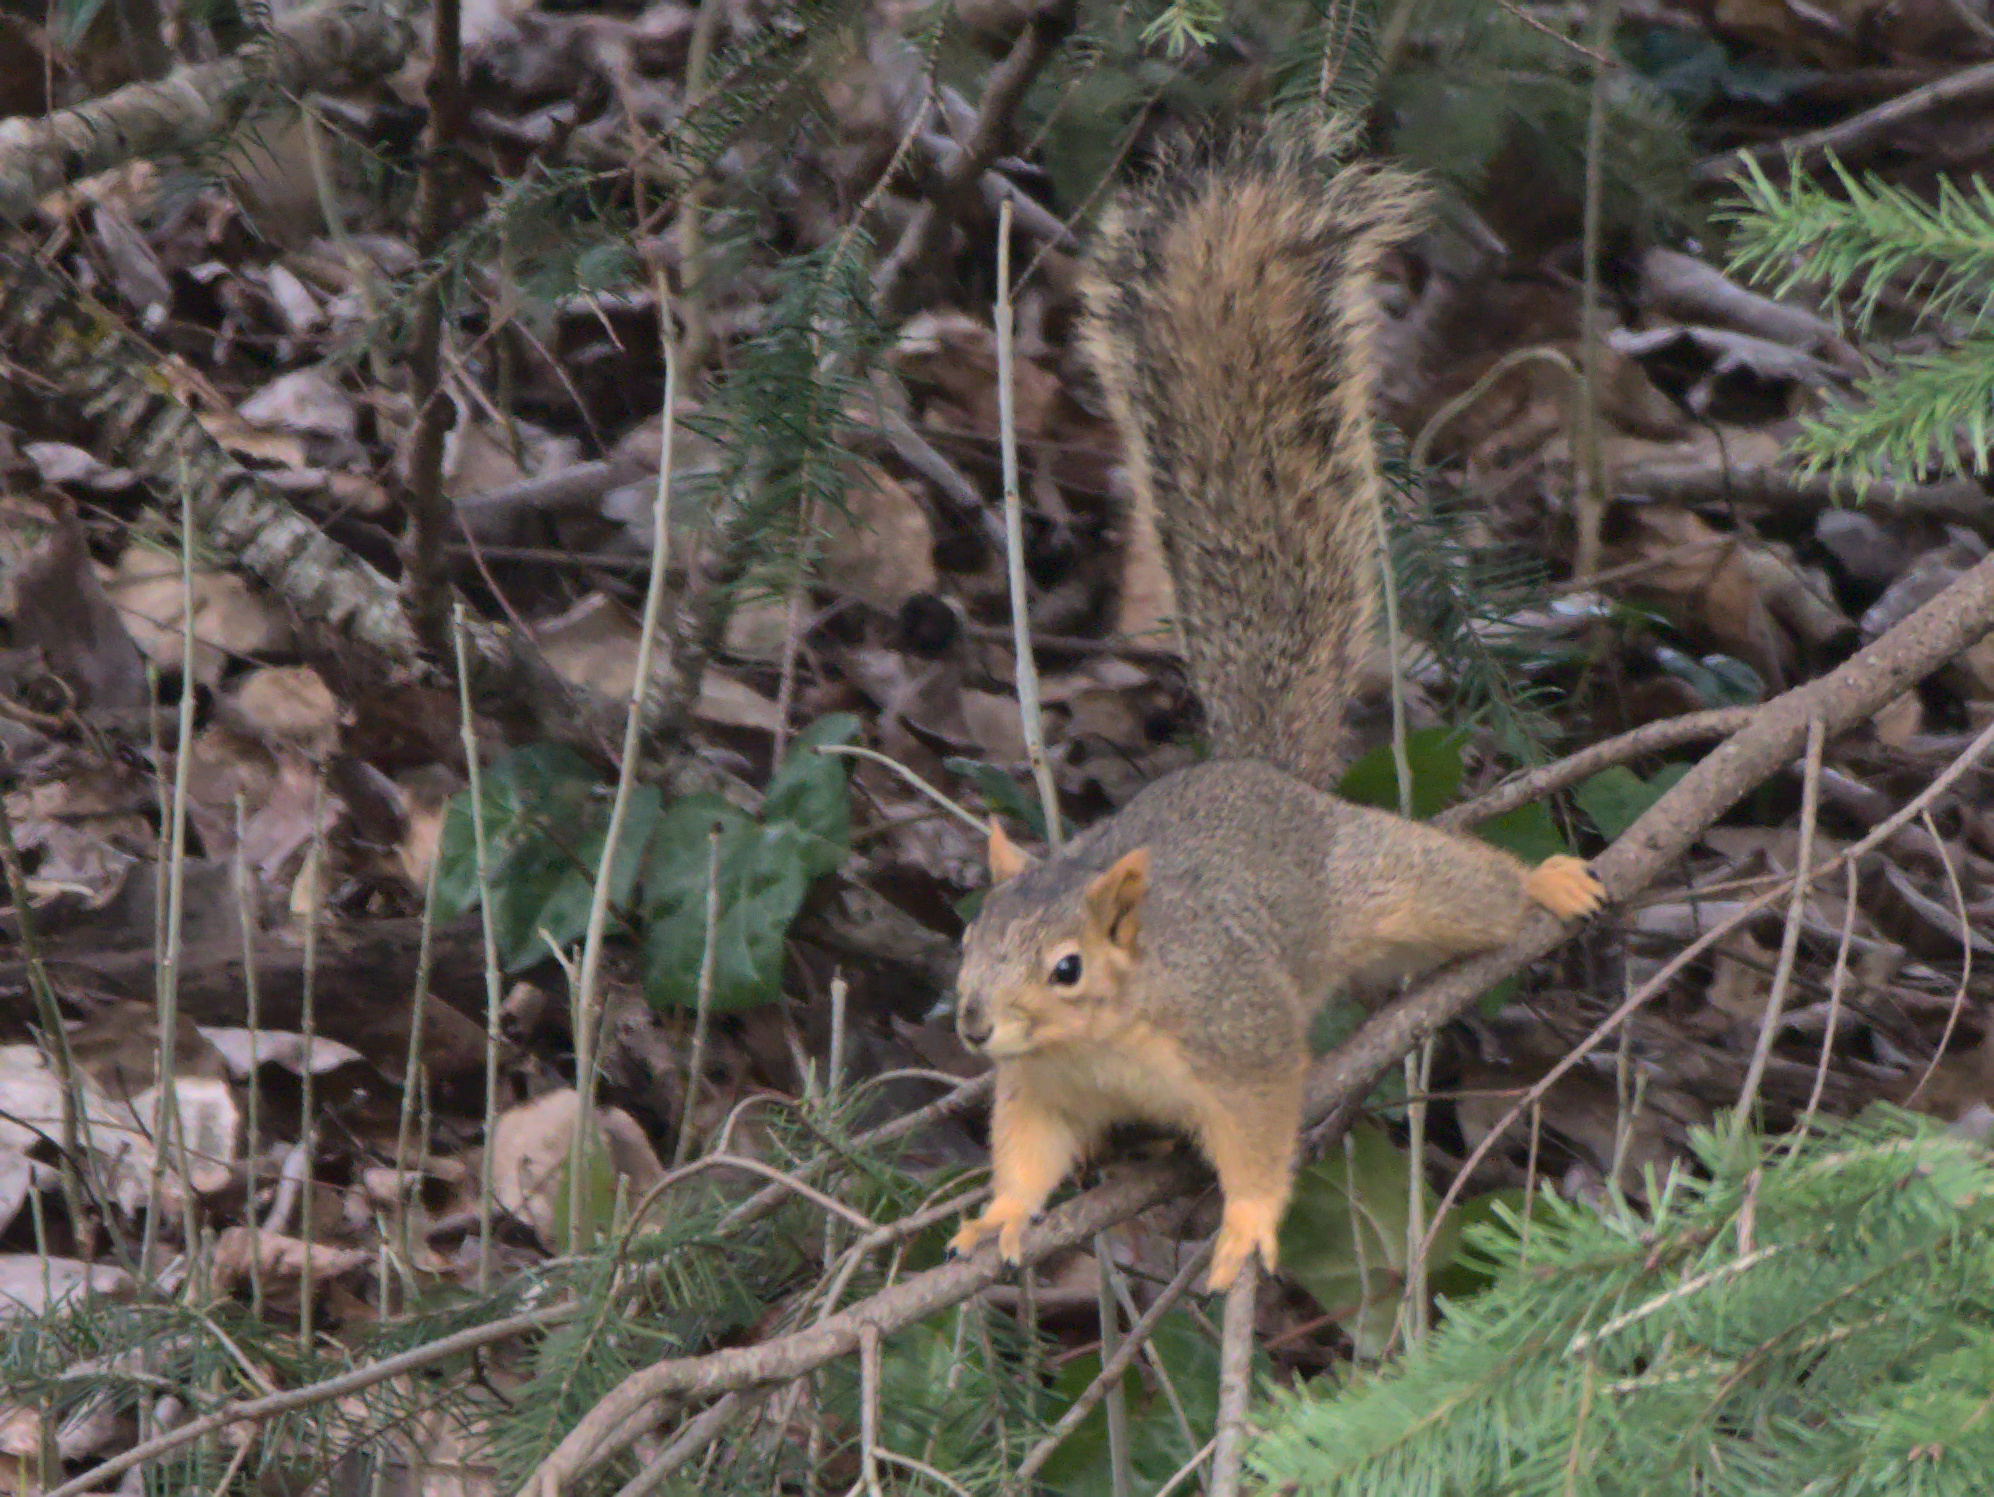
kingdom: Animalia
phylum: Chordata
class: Mammalia
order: Rodentia
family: Sciuridae
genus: Sciurus
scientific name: Sciurus niger
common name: Fox squirrel
